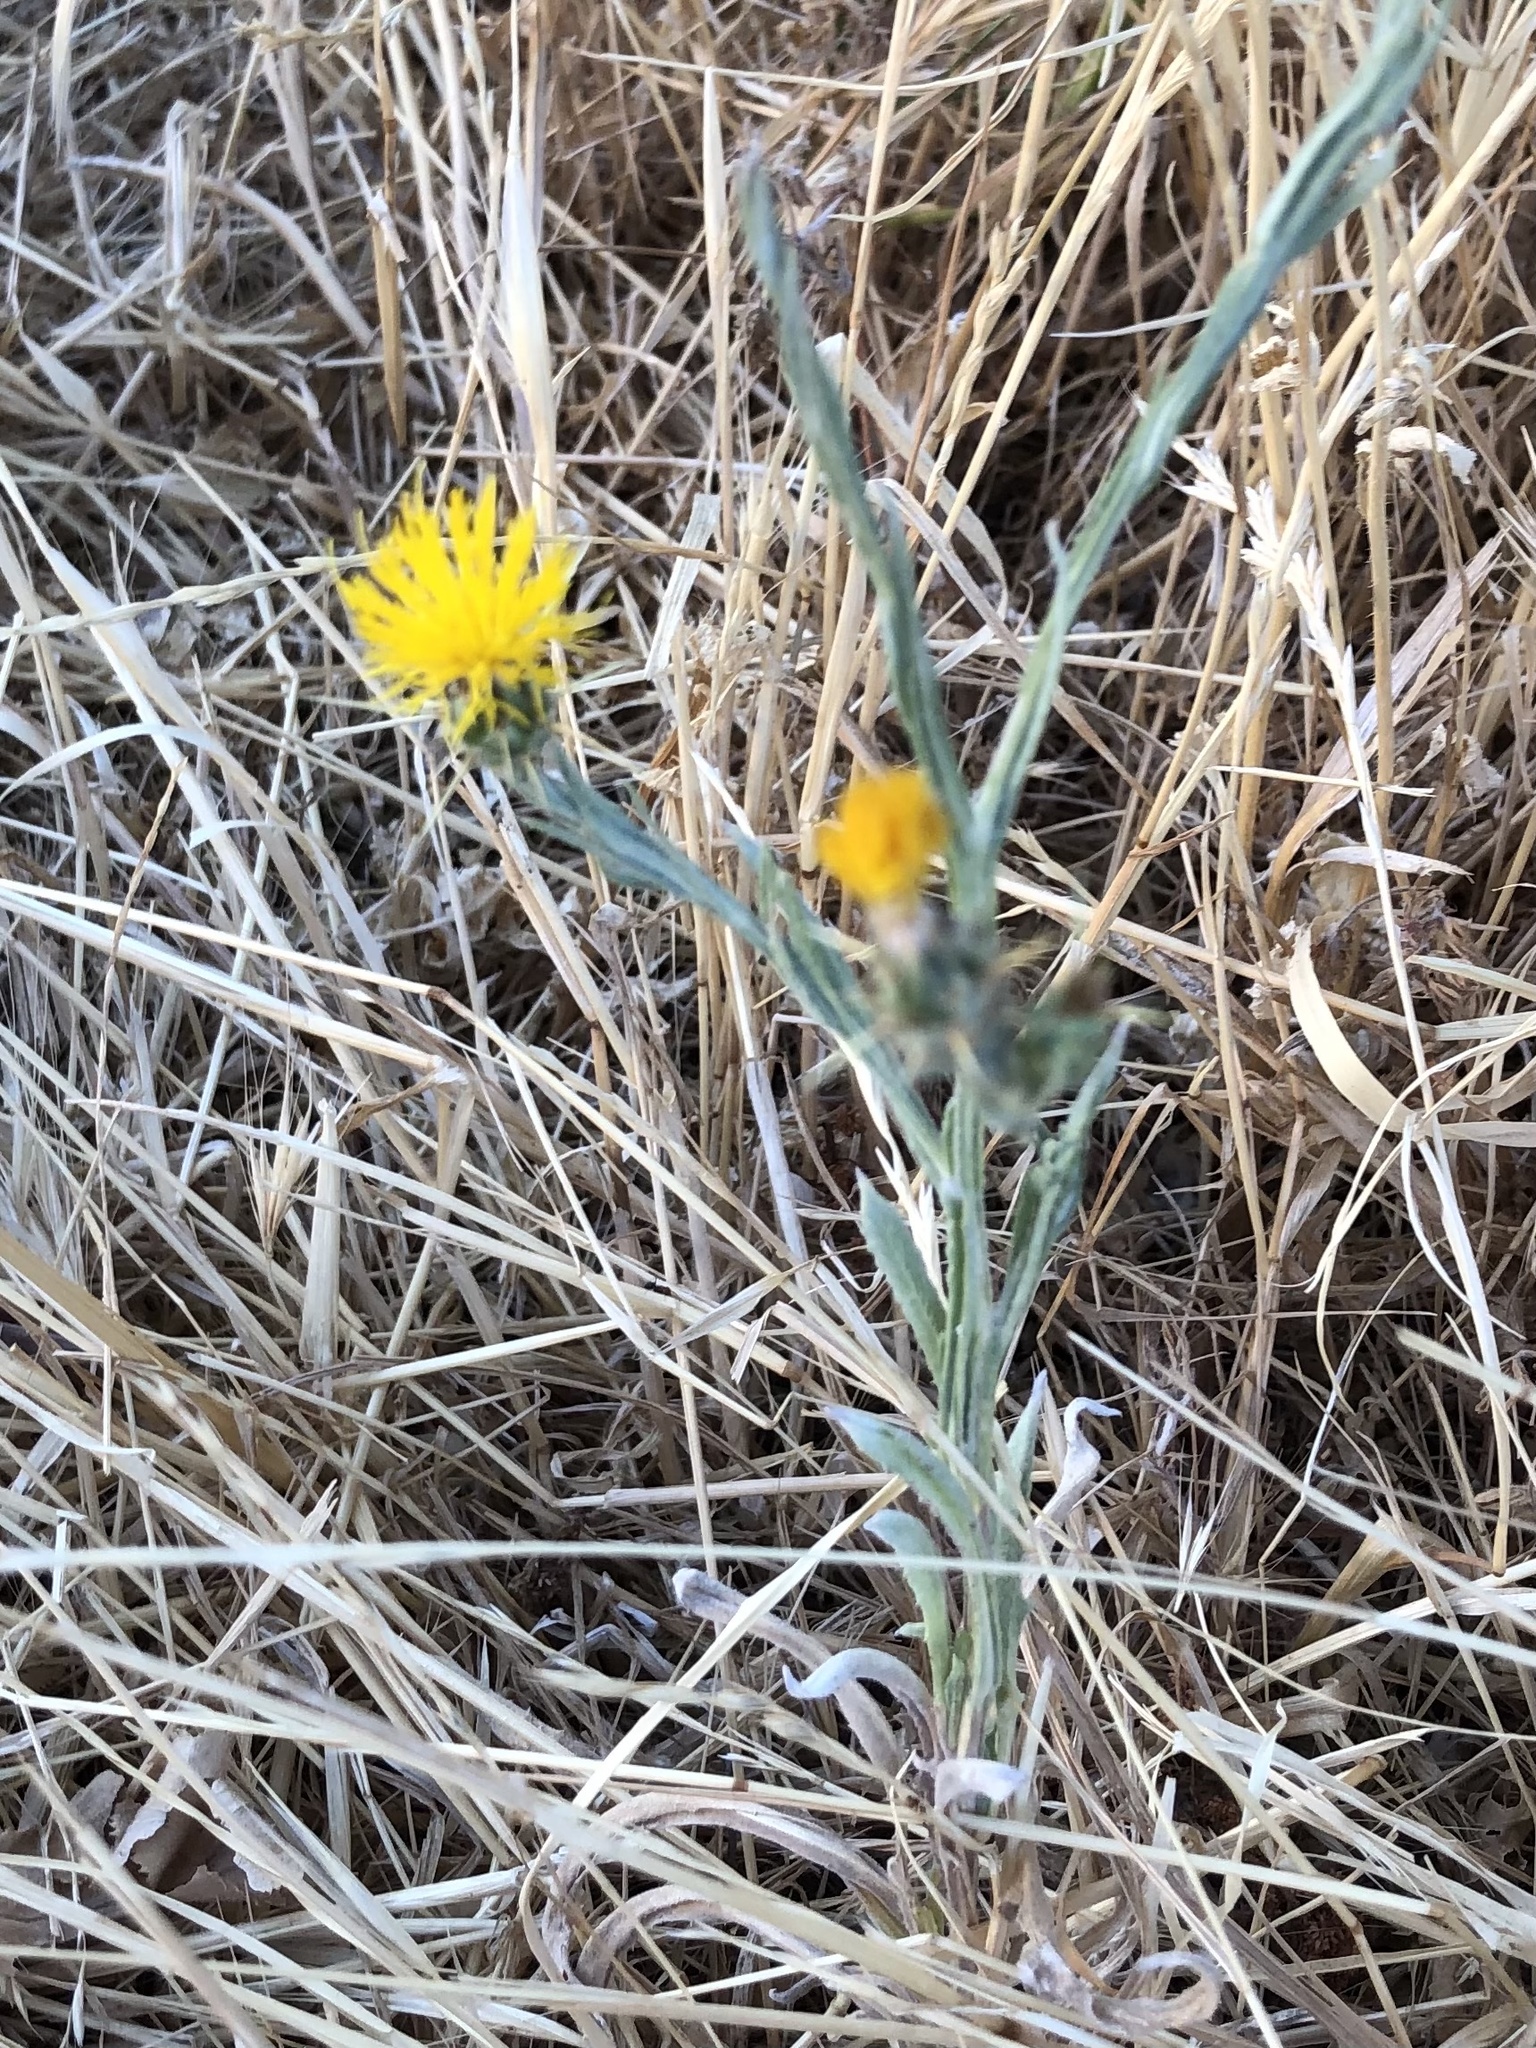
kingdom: Plantae
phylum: Tracheophyta
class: Magnoliopsida
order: Asterales
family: Asteraceae
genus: Centaurea
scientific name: Centaurea solstitialis
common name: Yellow star-thistle
